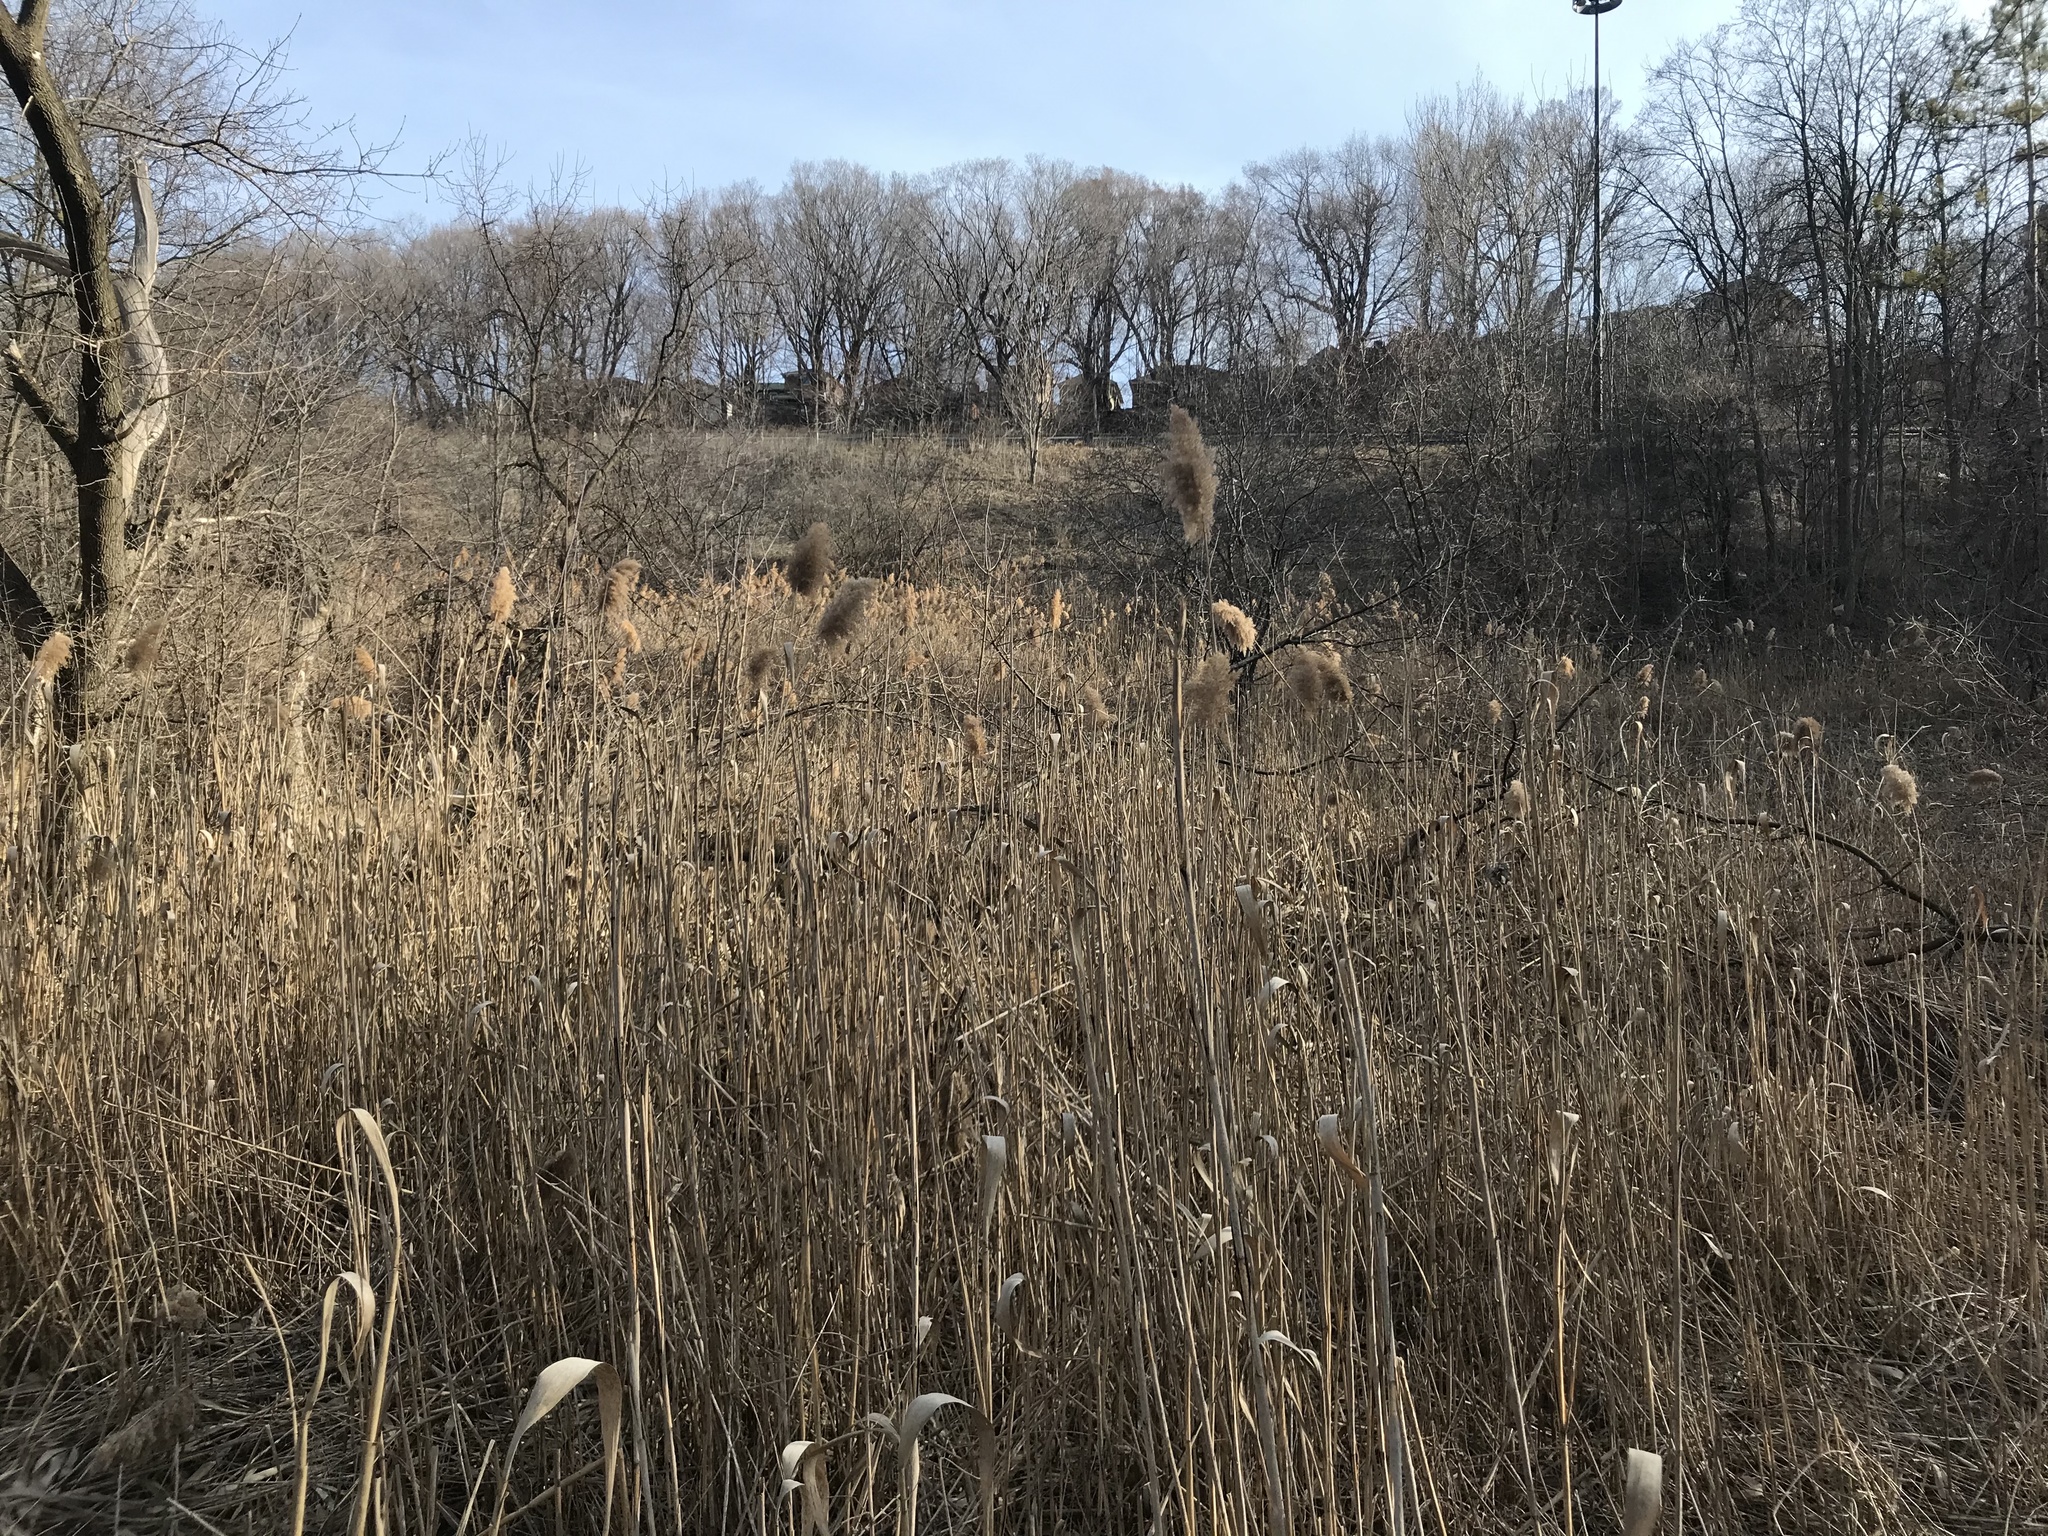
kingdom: Plantae
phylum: Tracheophyta
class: Liliopsida
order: Poales
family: Poaceae
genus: Phragmites
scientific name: Phragmites australis
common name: Common reed
